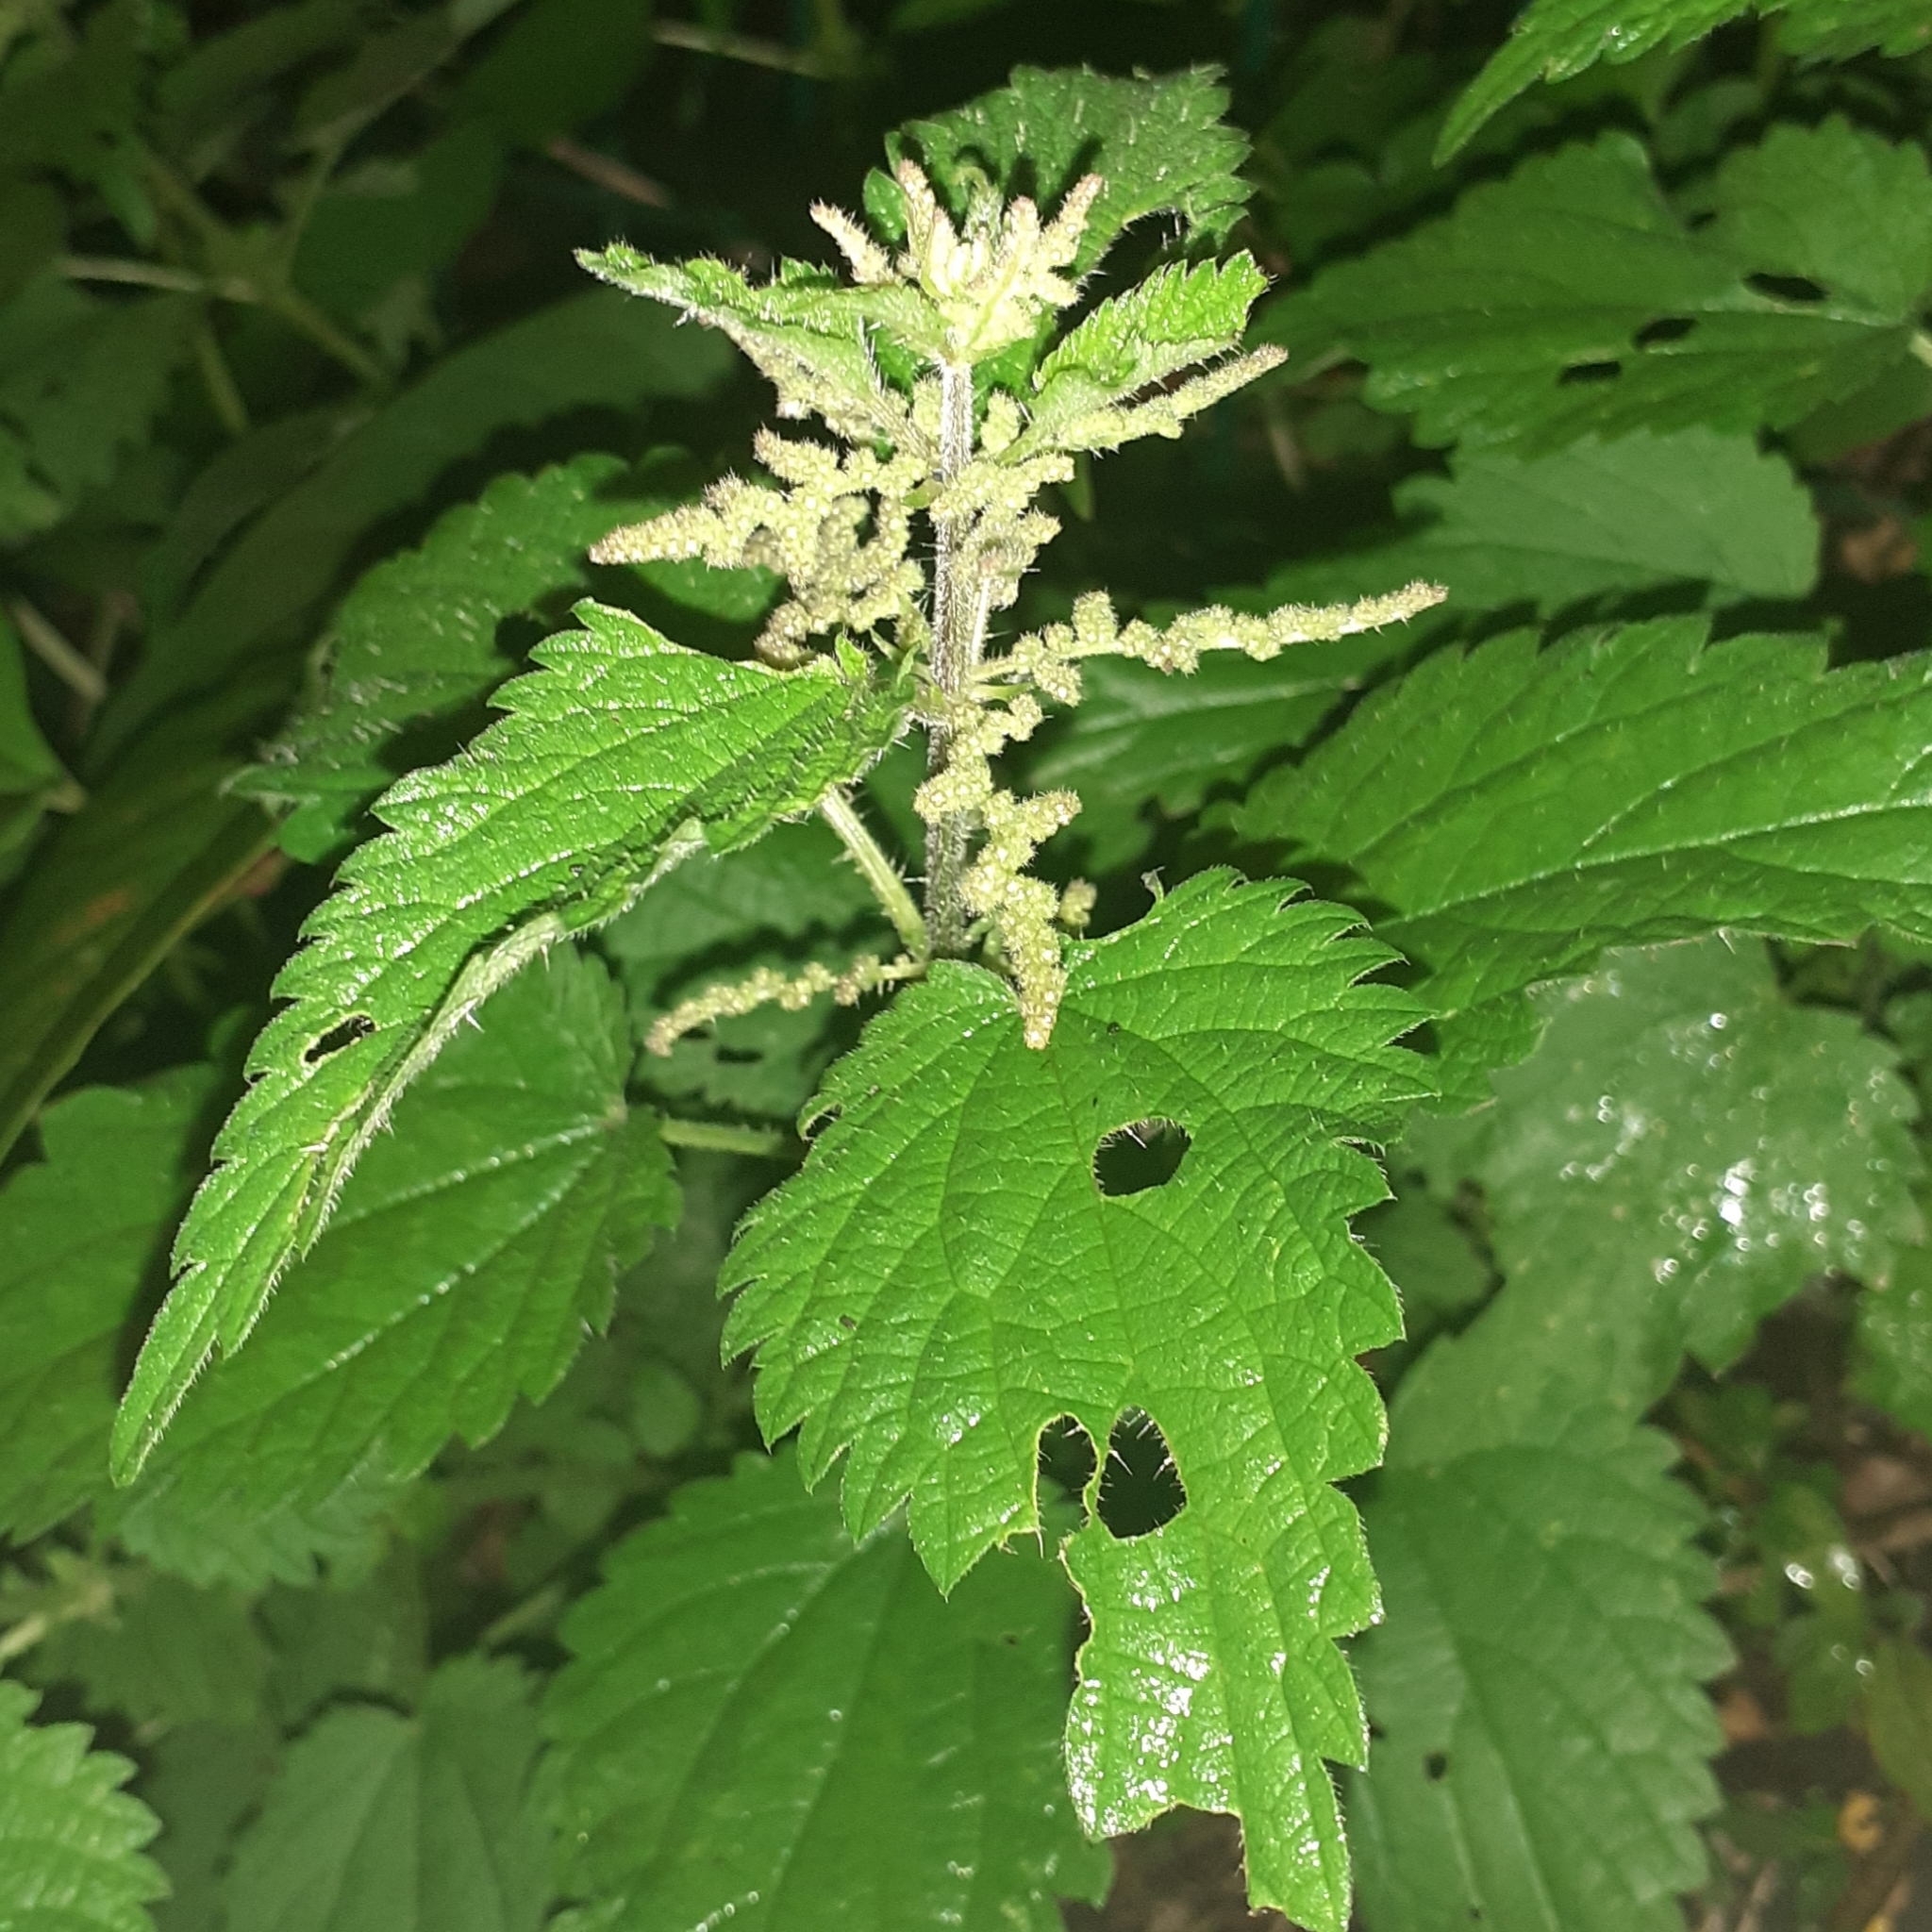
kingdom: Plantae
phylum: Tracheophyta
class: Magnoliopsida
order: Rosales
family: Urticaceae
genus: Urtica
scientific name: Urtica dioica
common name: Common nettle
